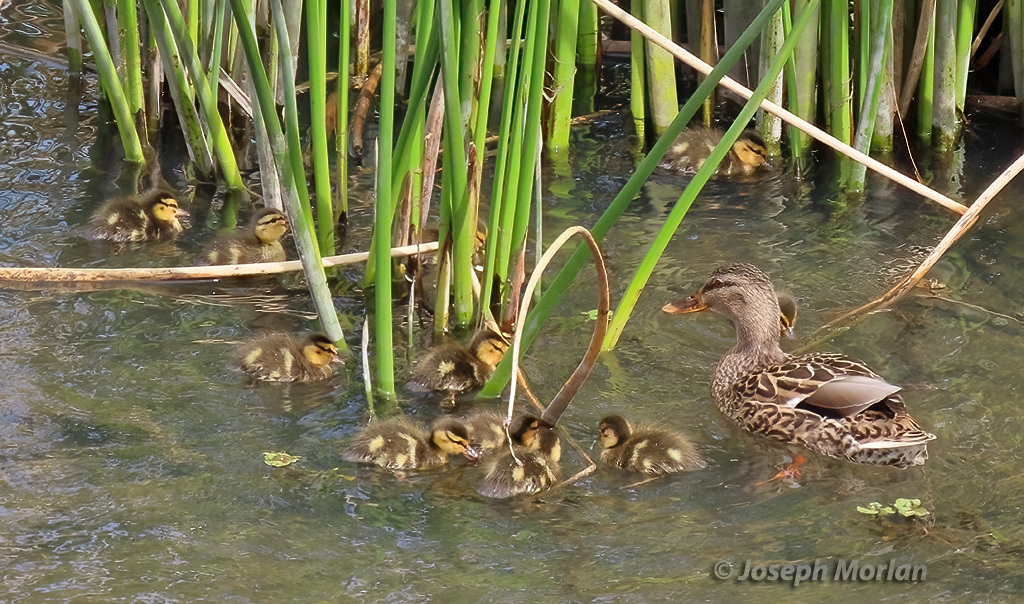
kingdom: Animalia
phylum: Chordata
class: Aves
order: Anseriformes
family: Anatidae
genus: Anas
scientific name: Anas platyrhynchos
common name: Mallard
